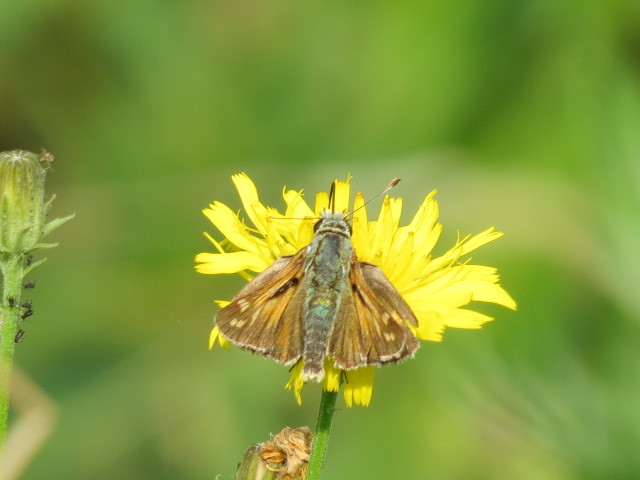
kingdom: Animalia
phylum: Arthropoda
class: Insecta
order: Lepidoptera
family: Hesperiidae
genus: Hesperia
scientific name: Hesperia comma
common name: Common branded skipper
